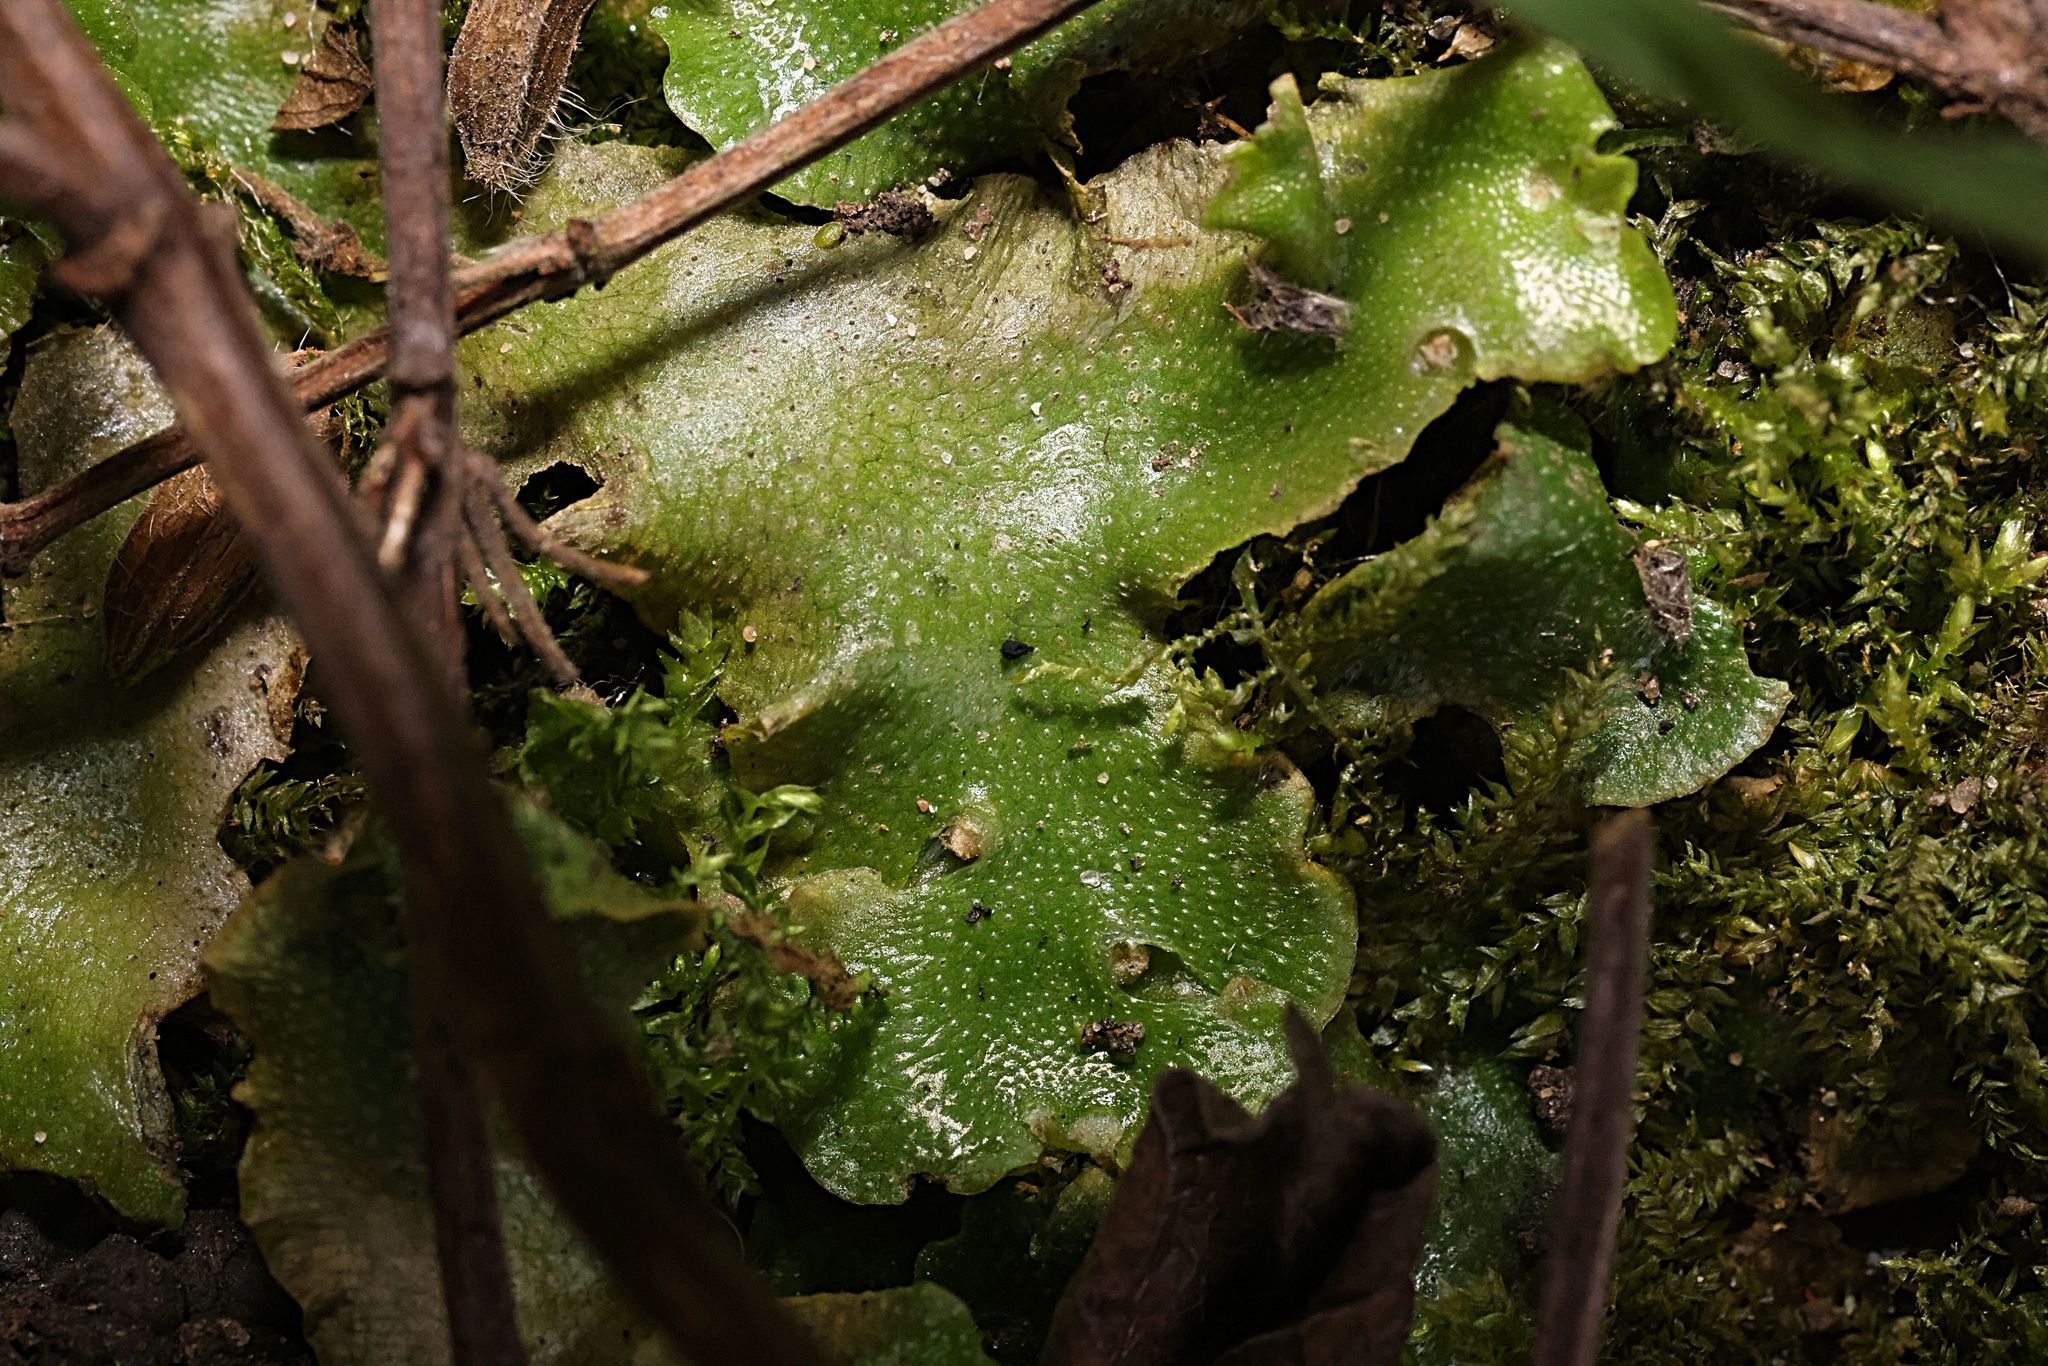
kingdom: Plantae
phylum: Marchantiophyta
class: Marchantiopsida
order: Lunulariales
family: Lunulariaceae
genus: Lunularia
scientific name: Lunularia cruciata
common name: Crescent-cup liverwort
